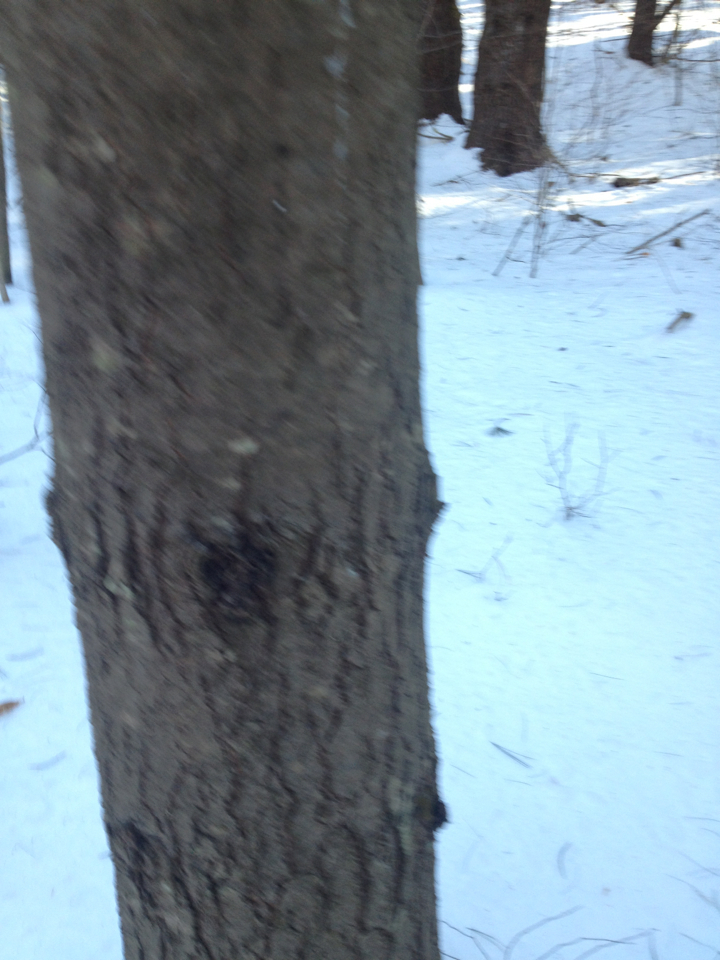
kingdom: Plantae
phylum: Tracheophyta
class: Pinopsida
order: Pinales
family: Pinaceae
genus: Pinus
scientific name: Pinus strobus
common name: Weymouth pine
